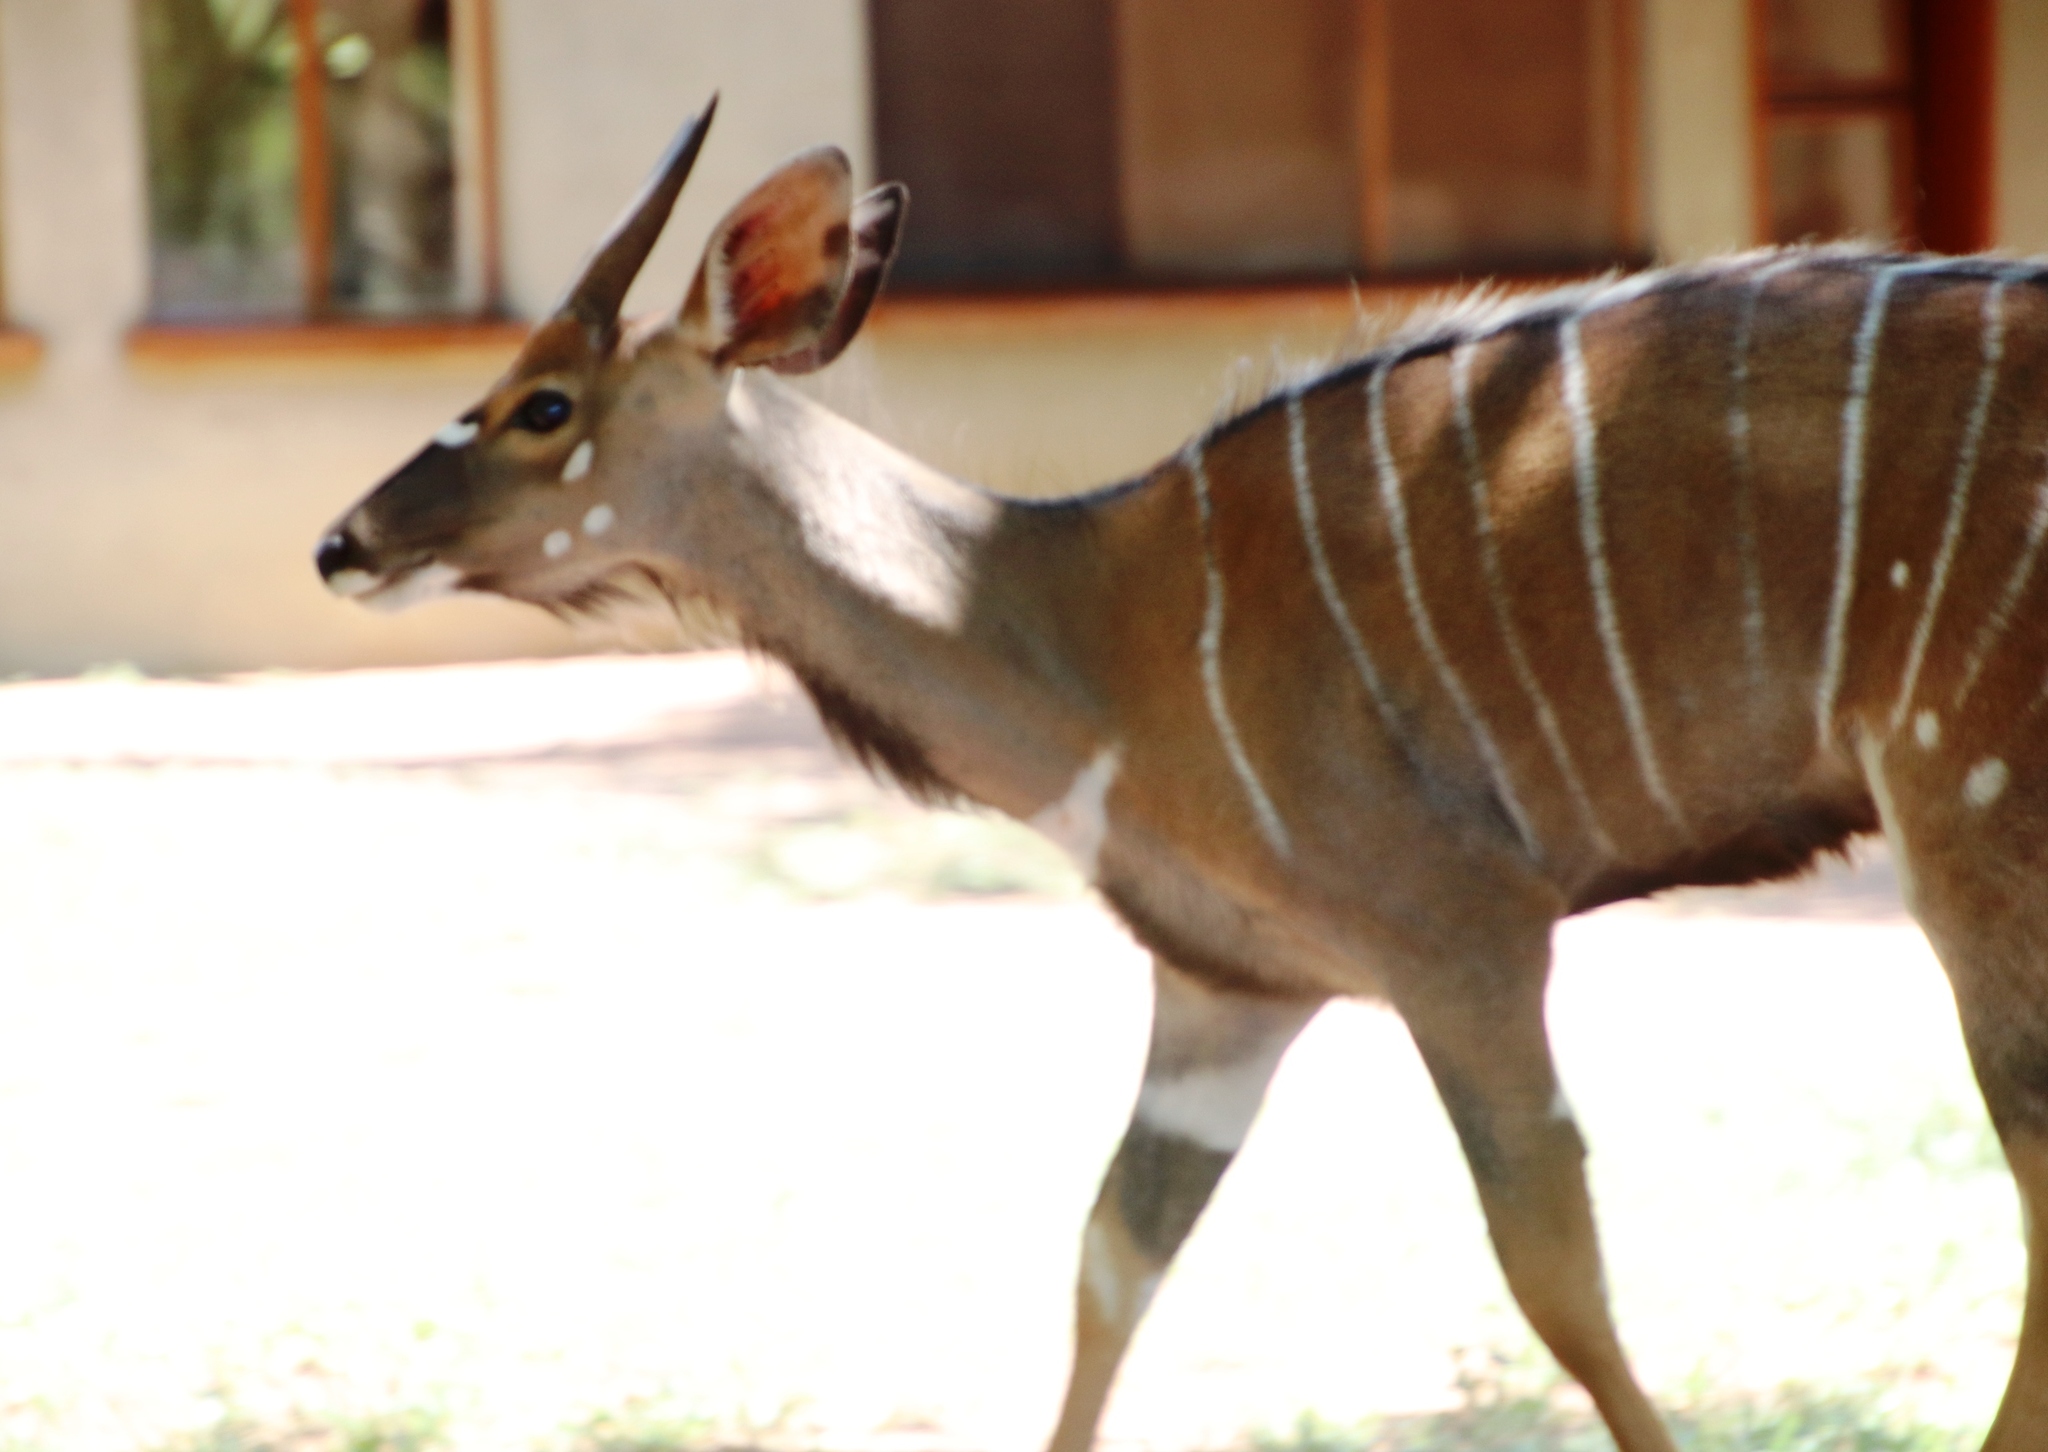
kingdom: Animalia
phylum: Chordata
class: Mammalia
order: Artiodactyla
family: Bovidae
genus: Tragelaphus
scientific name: Tragelaphus angasii
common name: Nyala
